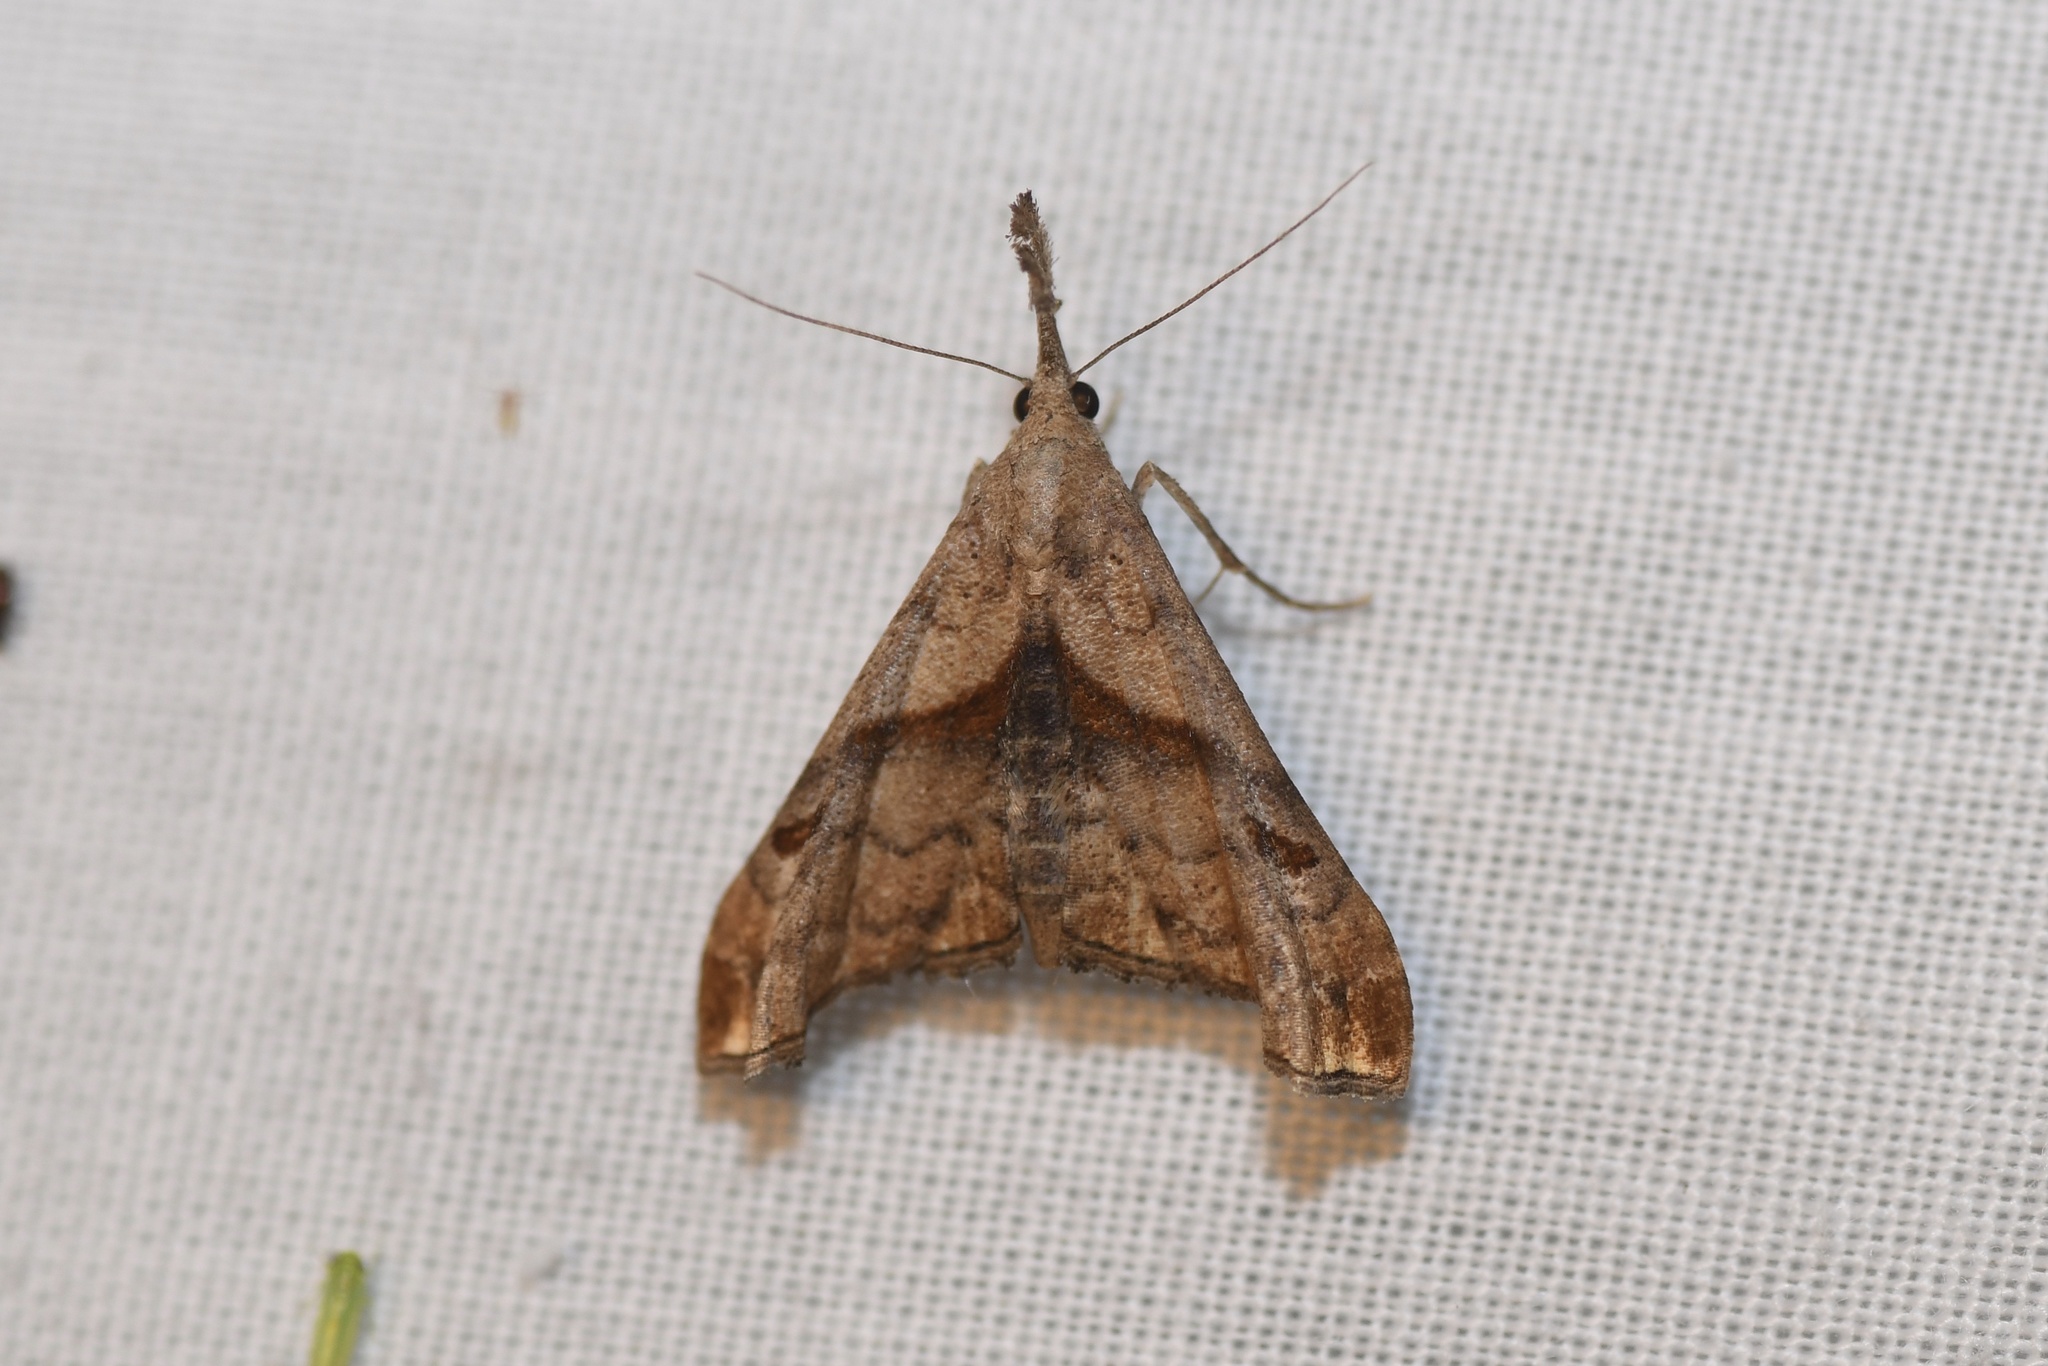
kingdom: Animalia
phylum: Arthropoda
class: Insecta
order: Lepidoptera
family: Erebidae
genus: Palthis
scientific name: Palthis angulalis
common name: Dark-spotted palthis moth
